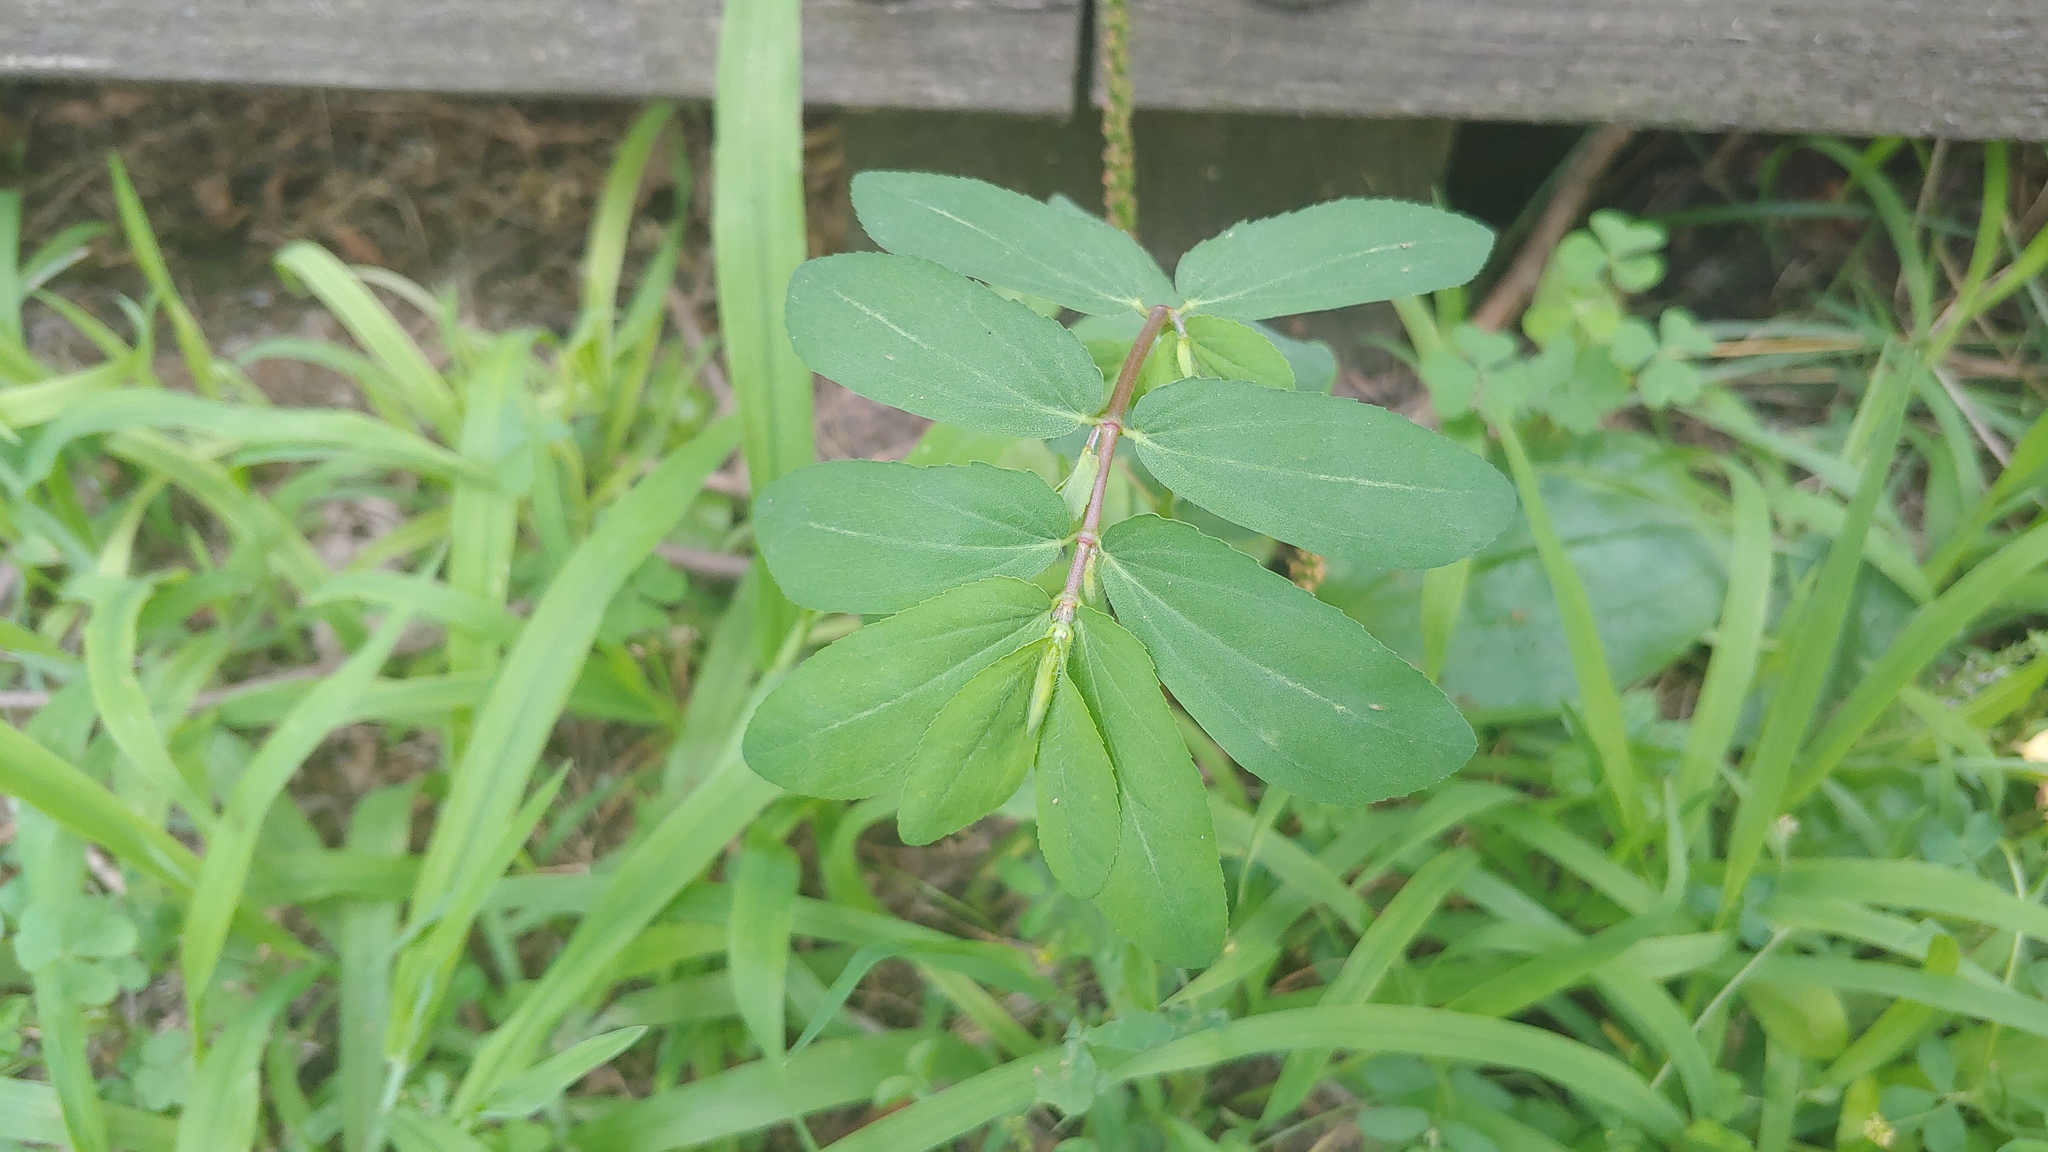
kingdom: Plantae
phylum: Tracheophyta
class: Magnoliopsida
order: Malpighiales
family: Euphorbiaceae
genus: Euphorbia
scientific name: Euphorbia nutans
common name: Eyebane
